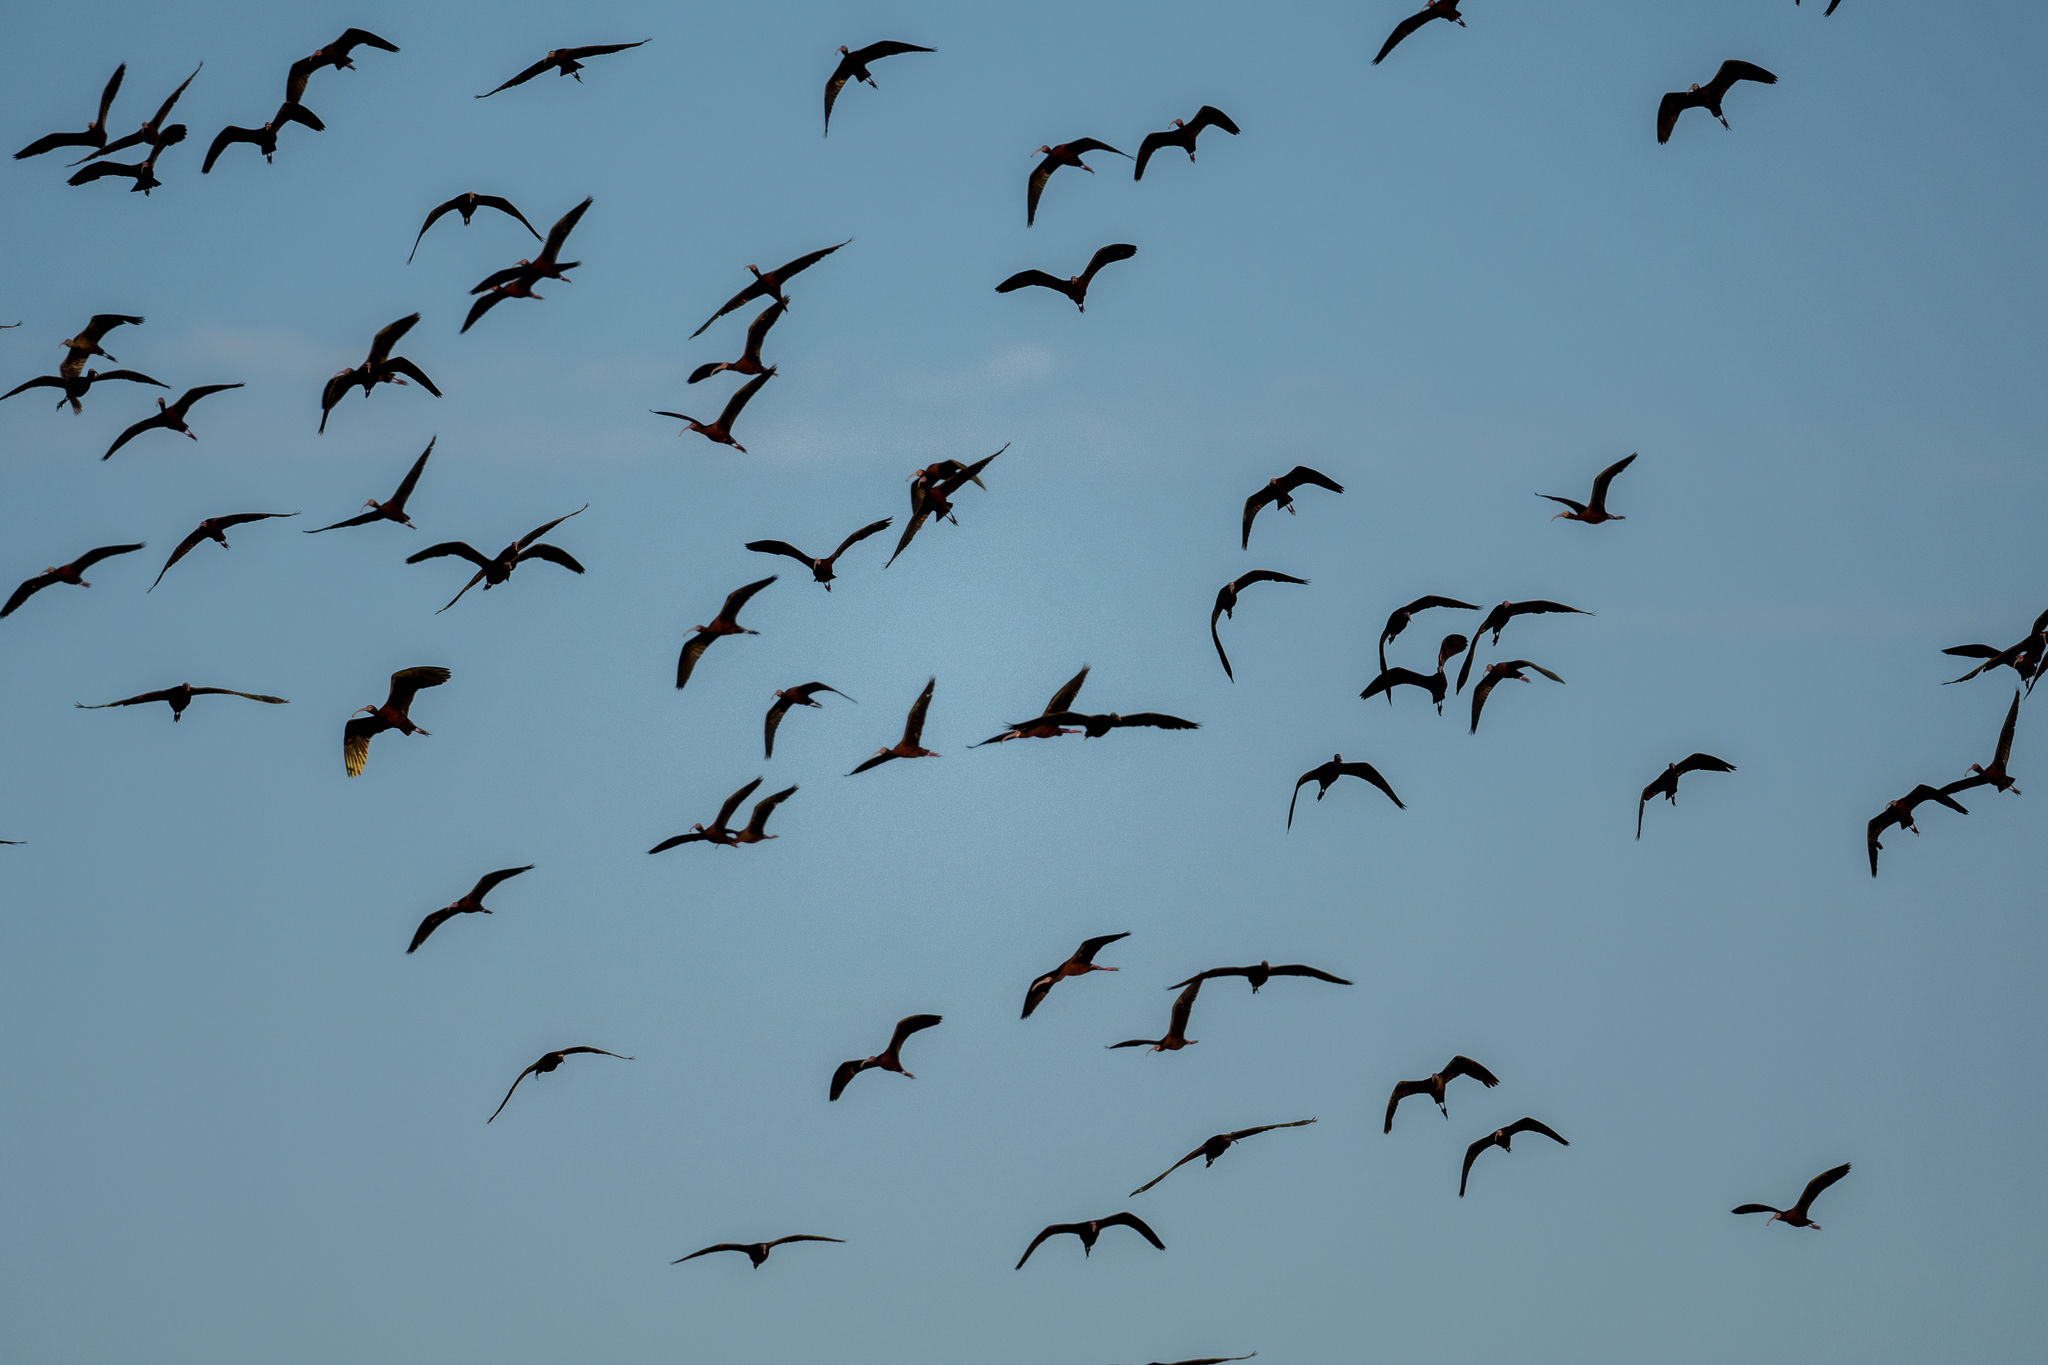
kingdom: Animalia
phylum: Chordata
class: Aves
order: Pelecaniformes
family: Threskiornithidae
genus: Plegadis
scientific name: Plegadis chihi
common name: White-faced ibis
